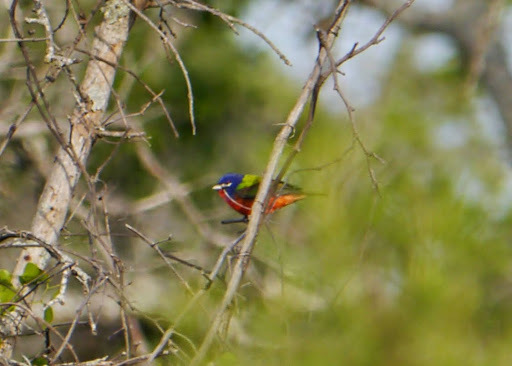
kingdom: Animalia
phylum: Chordata
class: Aves
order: Passeriformes
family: Cardinalidae
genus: Passerina
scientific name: Passerina ciris
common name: Painted bunting
